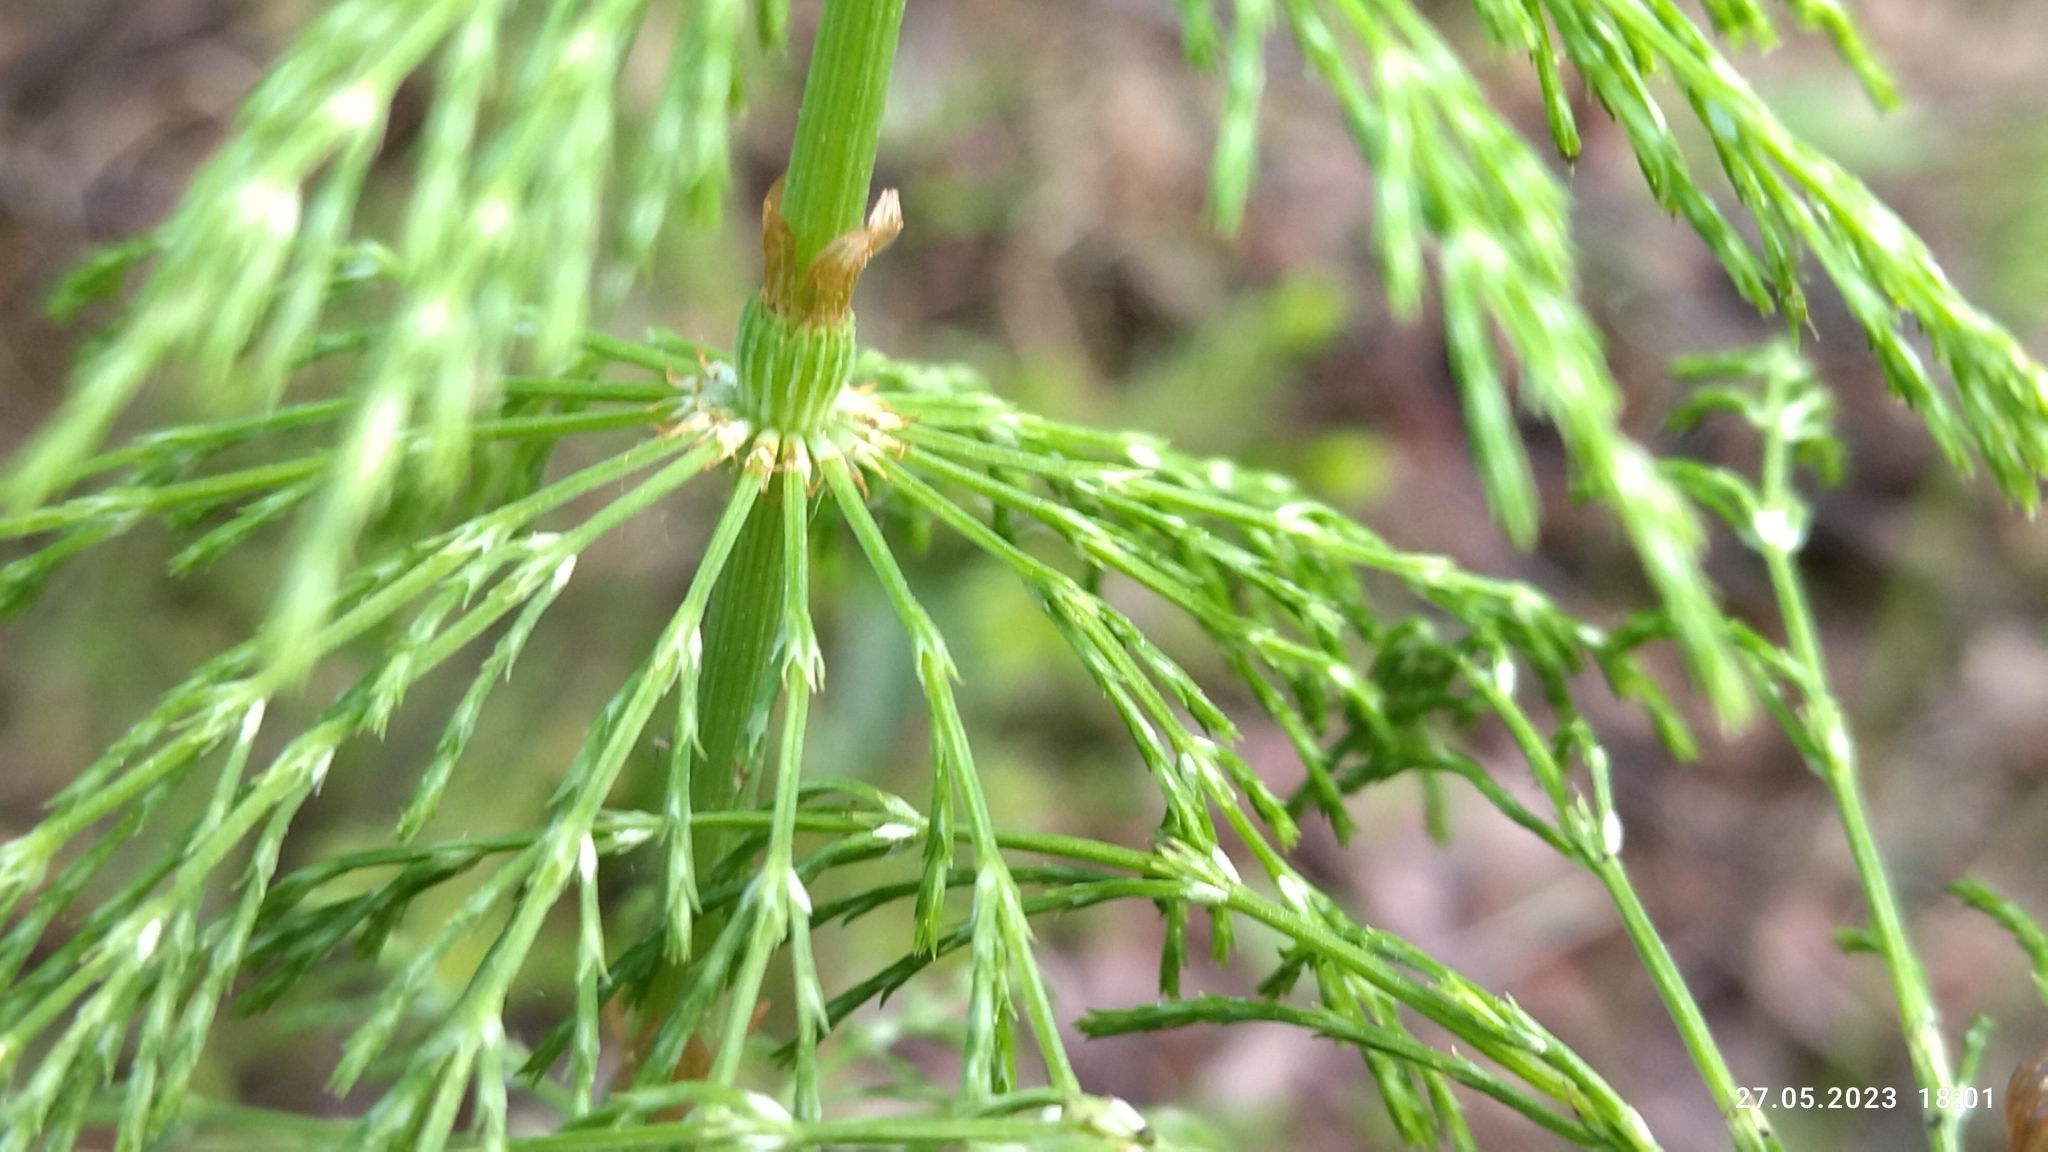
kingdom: Plantae
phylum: Tracheophyta
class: Polypodiopsida
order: Equisetales
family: Equisetaceae
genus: Equisetum
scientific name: Equisetum sylvaticum
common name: Wood horsetail
